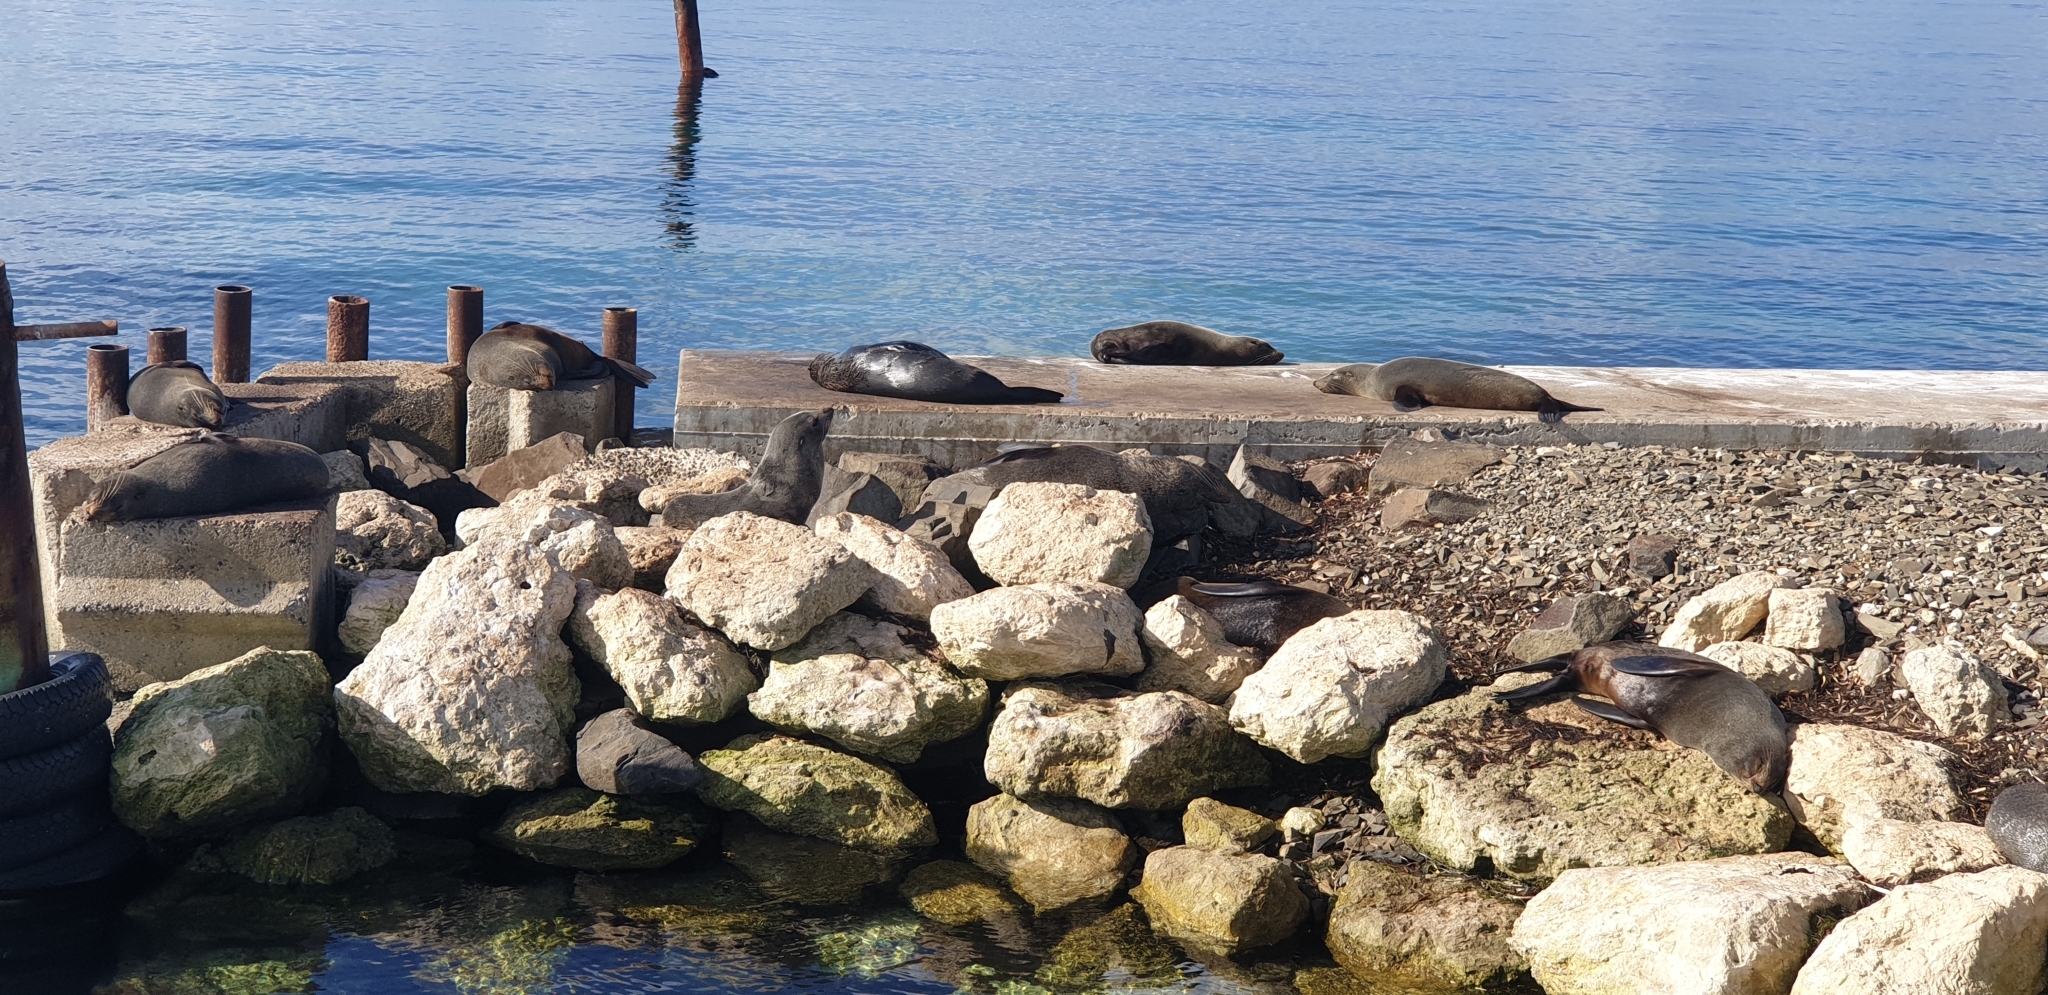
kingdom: Animalia
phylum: Chordata
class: Mammalia
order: Carnivora
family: Otariidae
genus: Arctocephalus
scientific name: Arctocephalus forsteri
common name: New zealand fur seal
